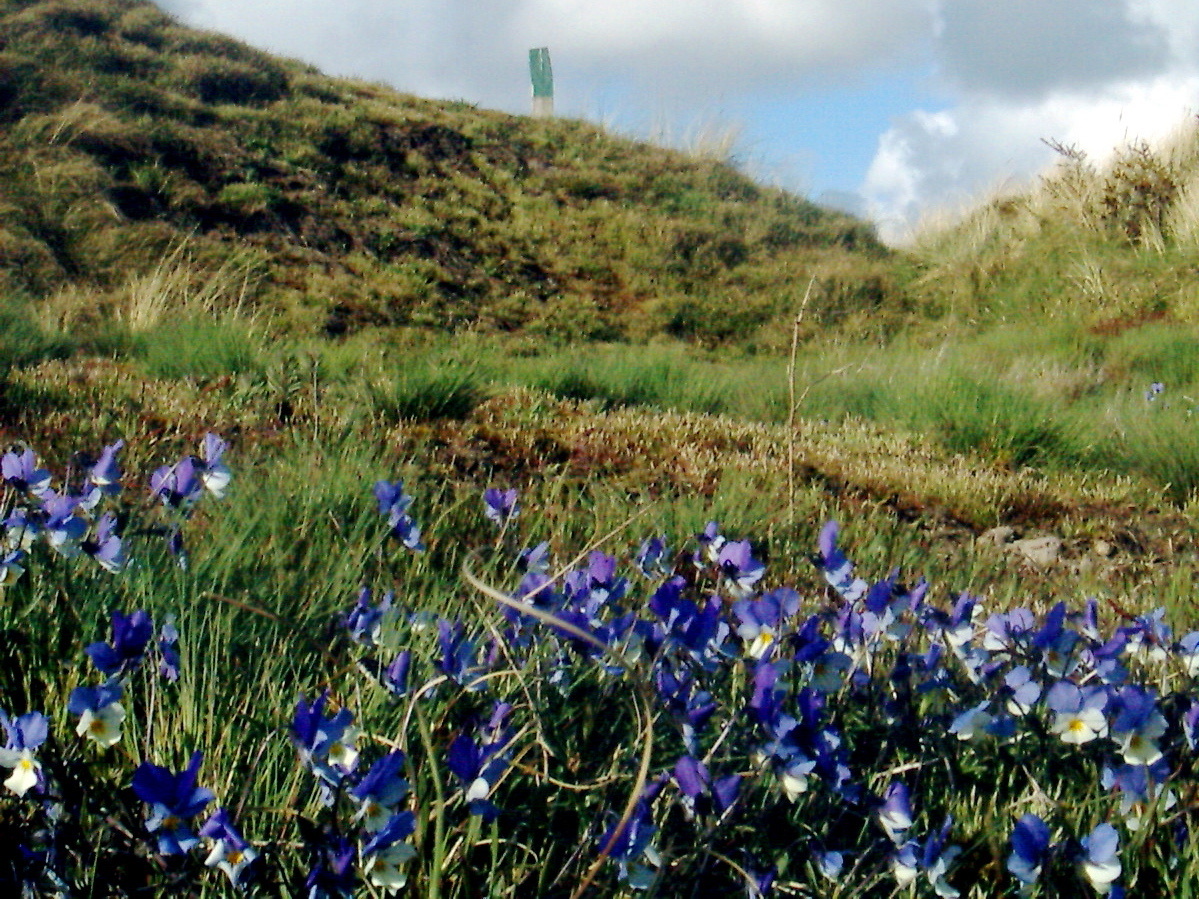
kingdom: Plantae
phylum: Tracheophyta
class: Magnoliopsida
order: Malpighiales
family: Violaceae
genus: Viola
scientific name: Viola tricolor
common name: Pansy
